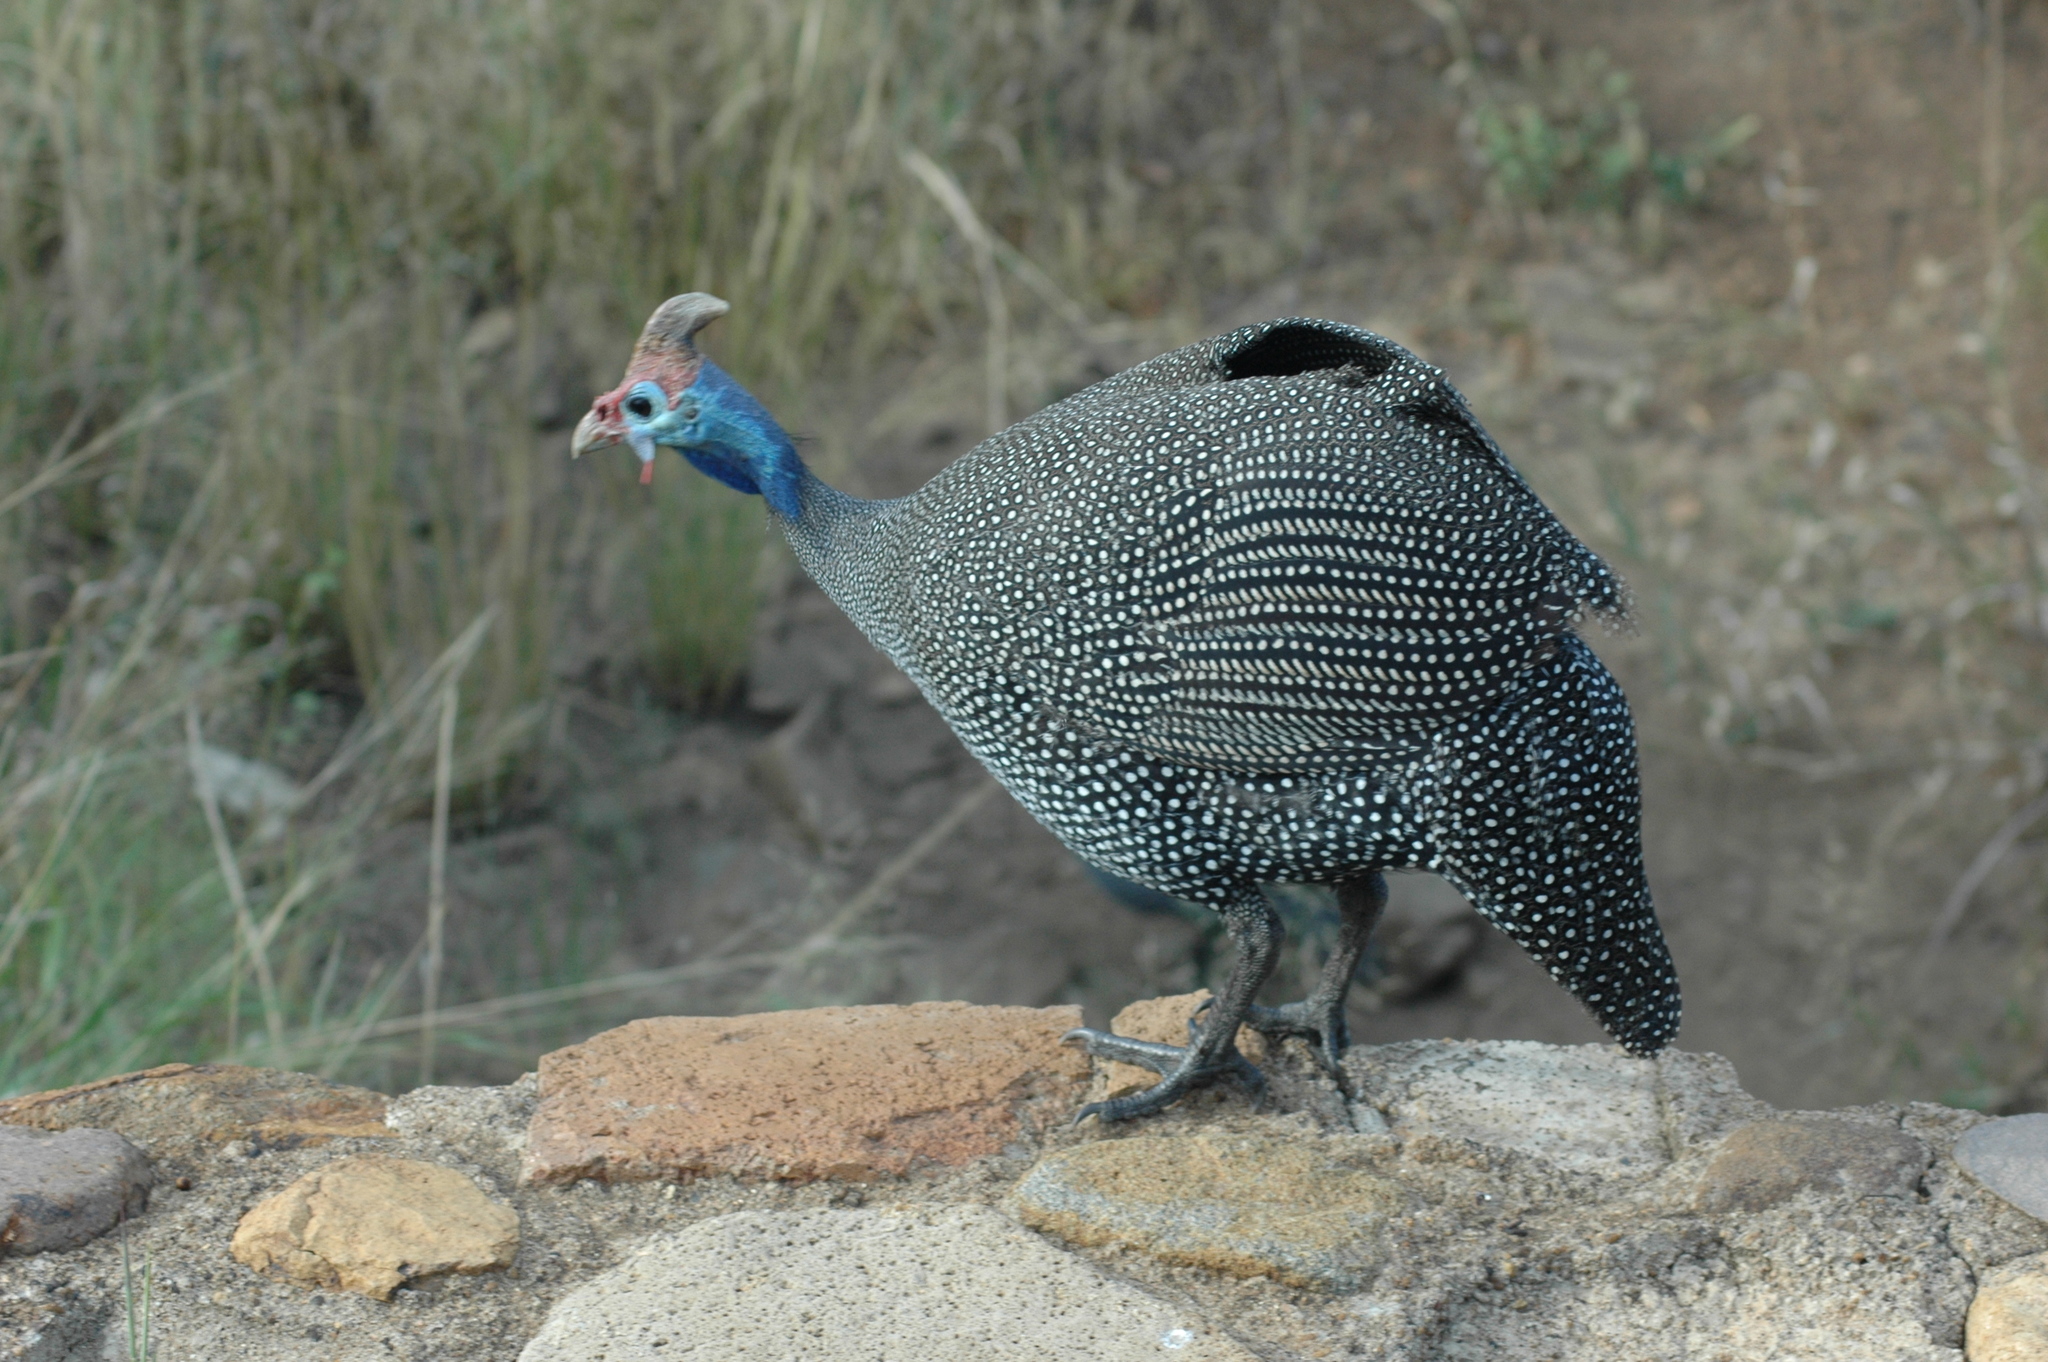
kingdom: Animalia
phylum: Chordata
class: Aves
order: Galliformes
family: Numididae
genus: Numida
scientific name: Numida meleagris
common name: Helmeted guineafowl
